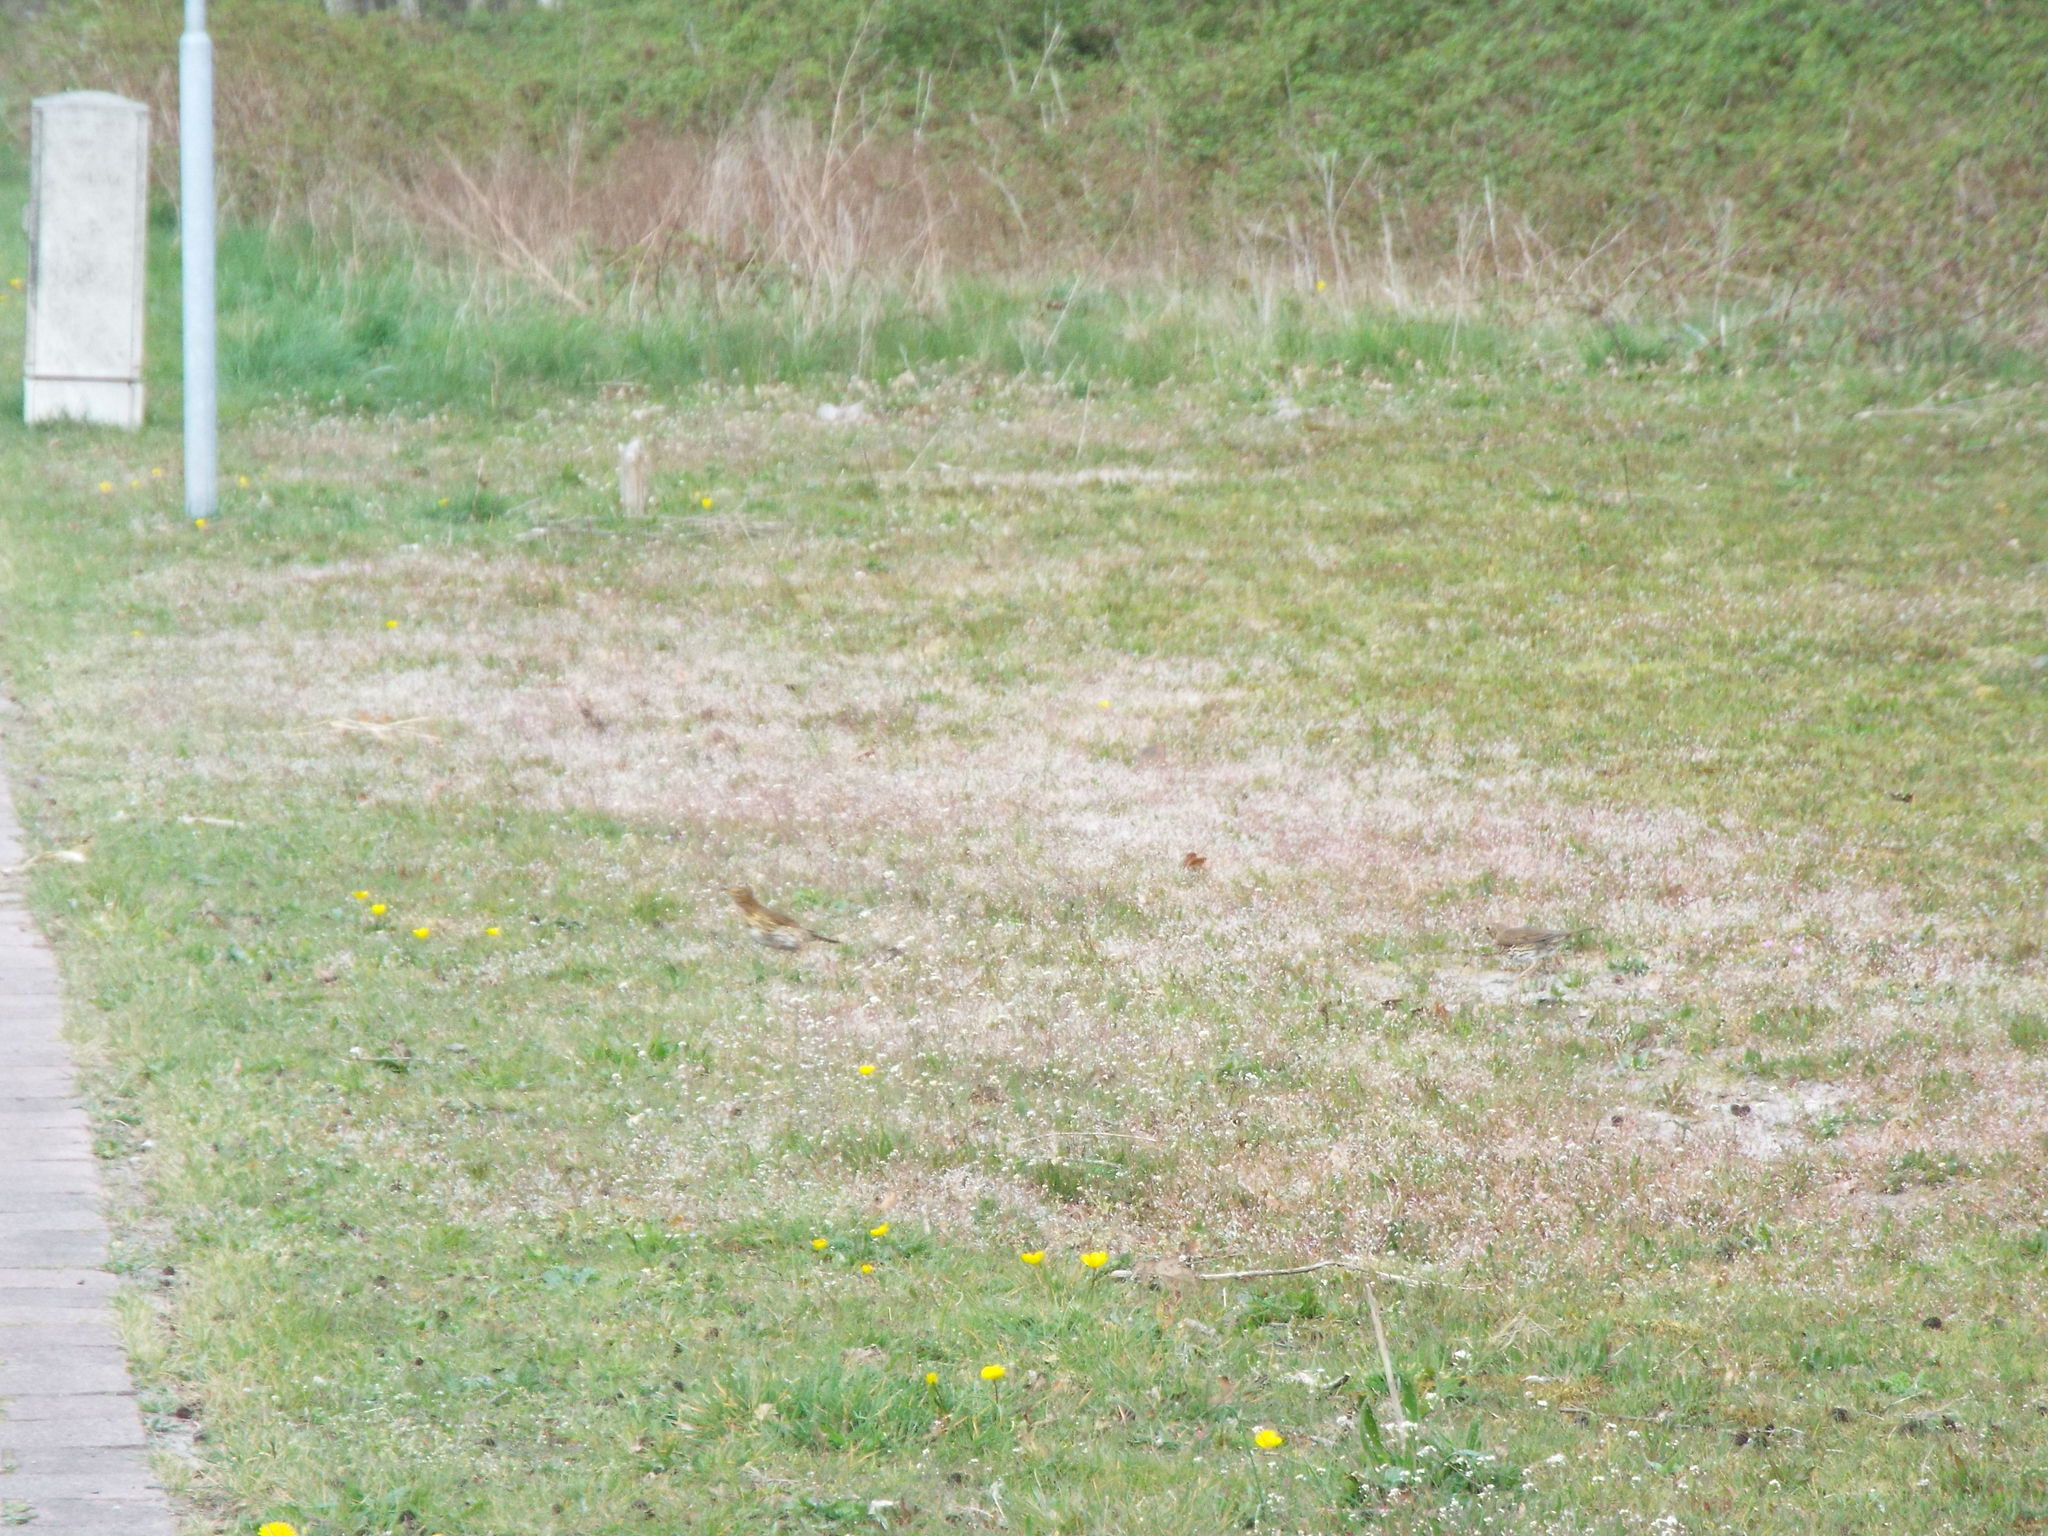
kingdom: Animalia
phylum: Chordata
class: Aves
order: Passeriformes
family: Turdidae
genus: Turdus
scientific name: Turdus philomelos
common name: Song thrush
